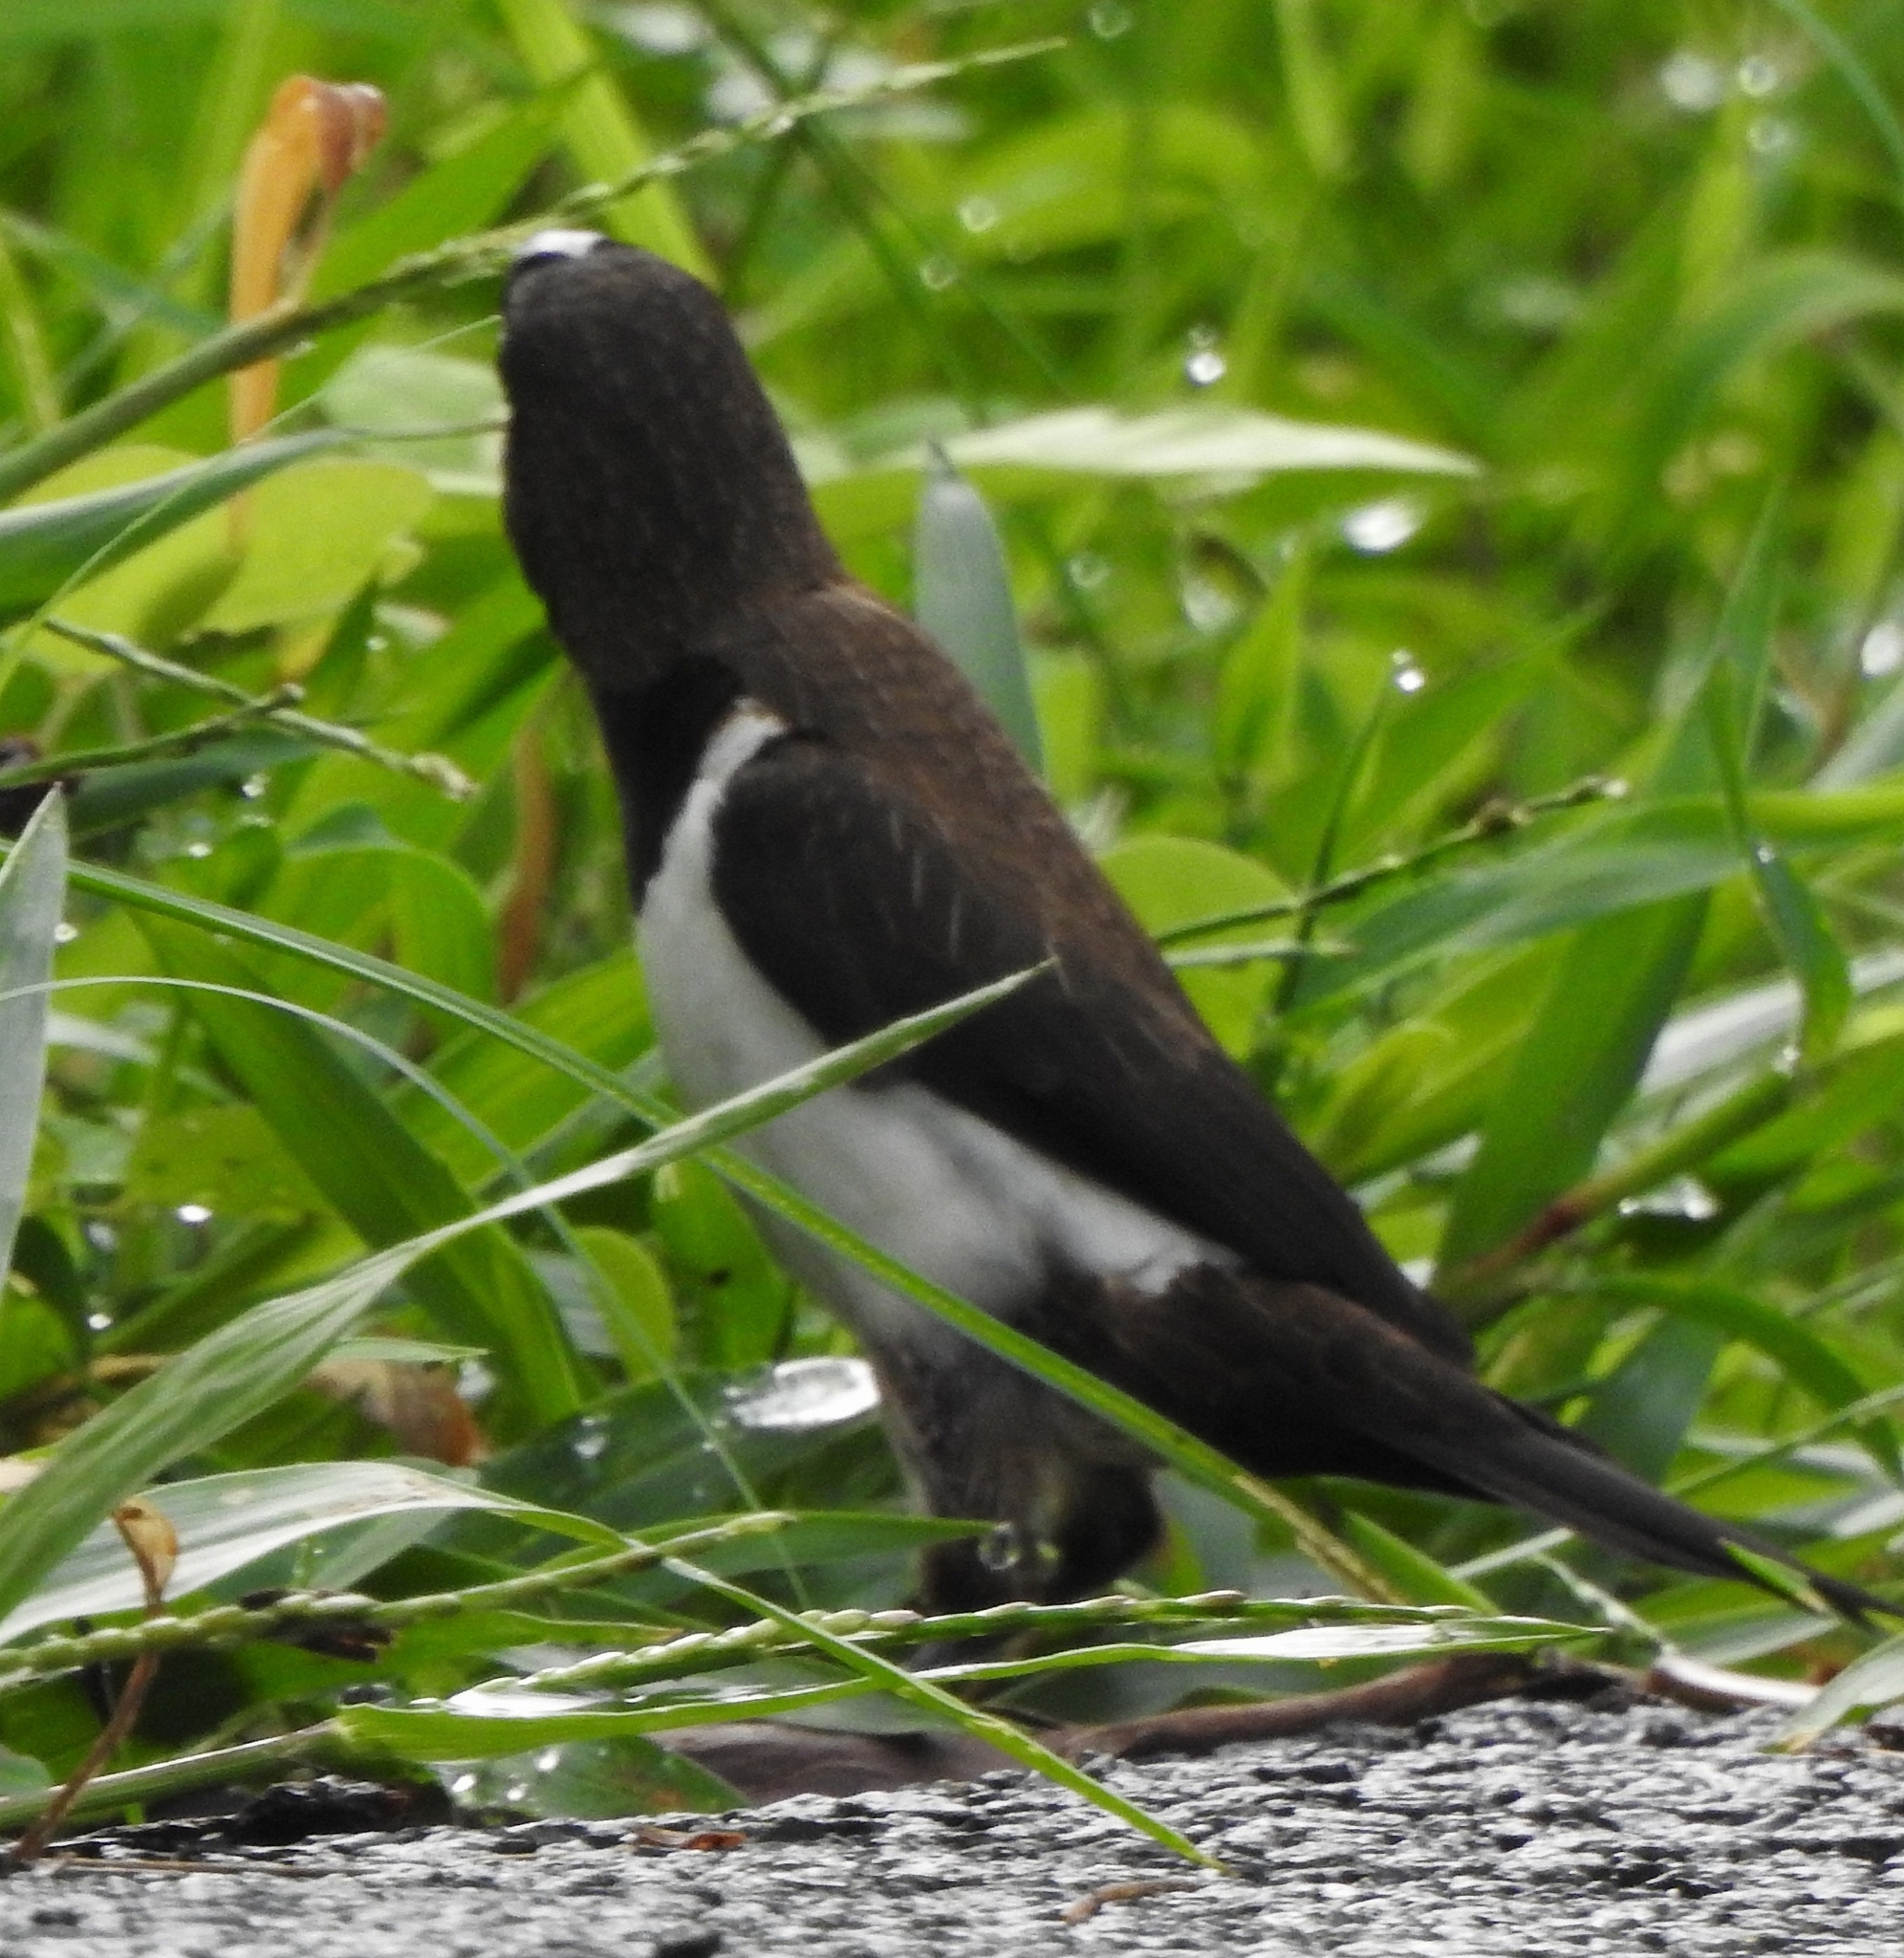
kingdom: Animalia
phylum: Chordata
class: Aves
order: Passeriformes
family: Estrildidae
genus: Lonchura
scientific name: Lonchura striata
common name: White-rumped munia
